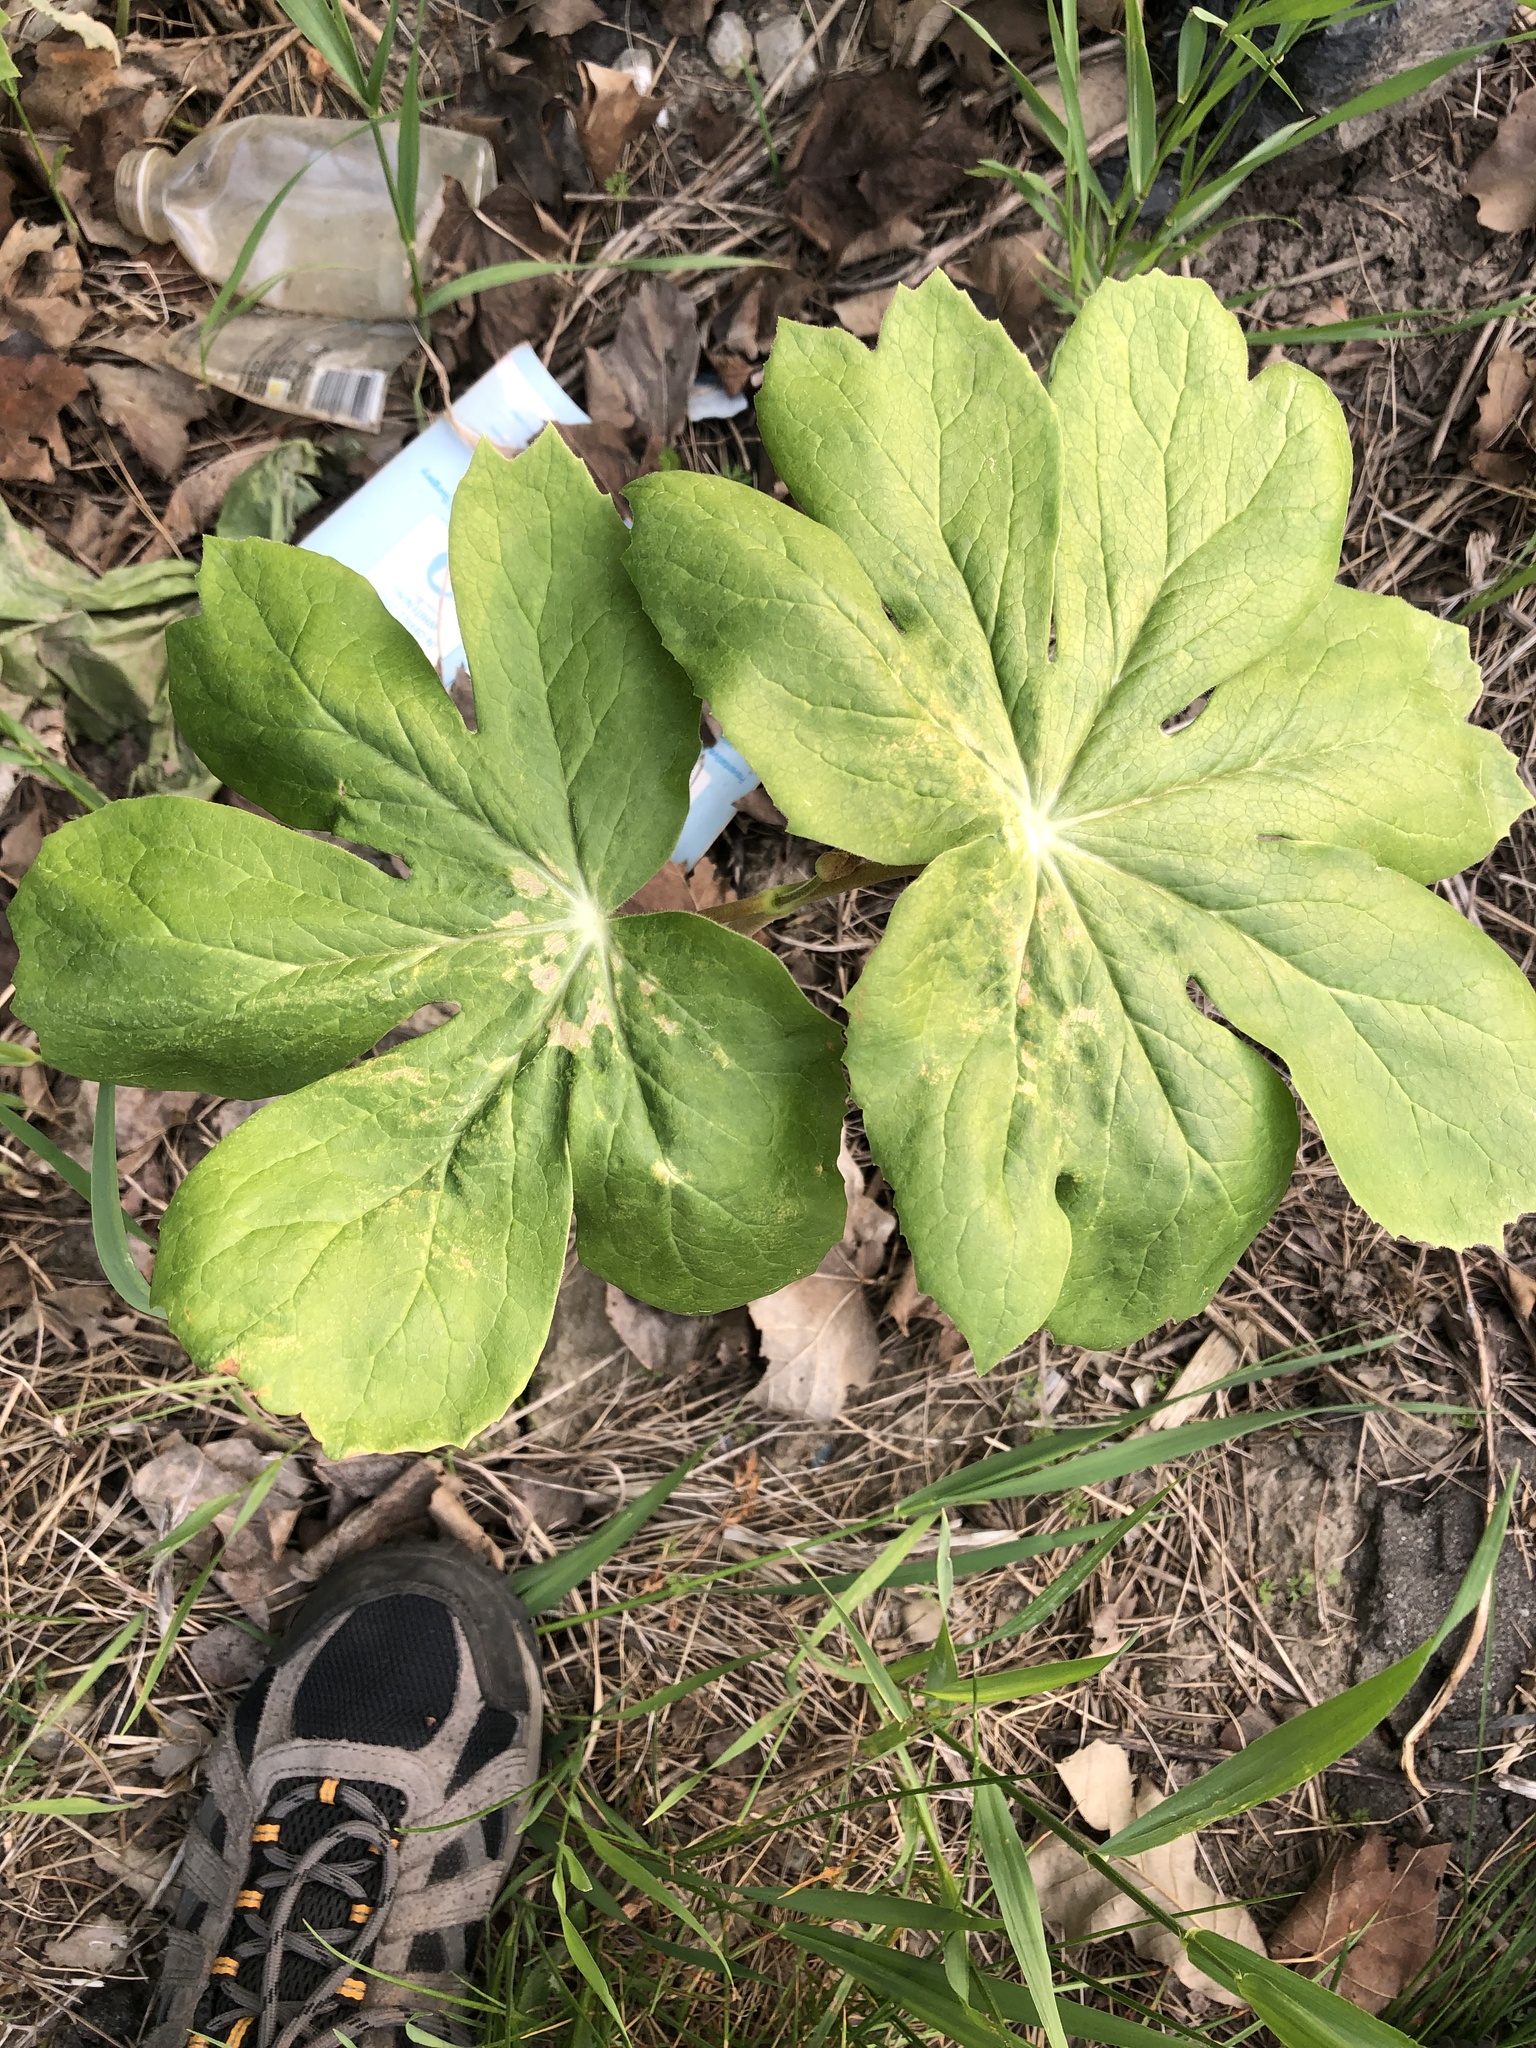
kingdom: Plantae
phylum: Tracheophyta
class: Magnoliopsida
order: Ranunculales
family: Berberidaceae
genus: Podophyllum
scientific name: Podophyllum peltatum
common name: Wild mandrake
